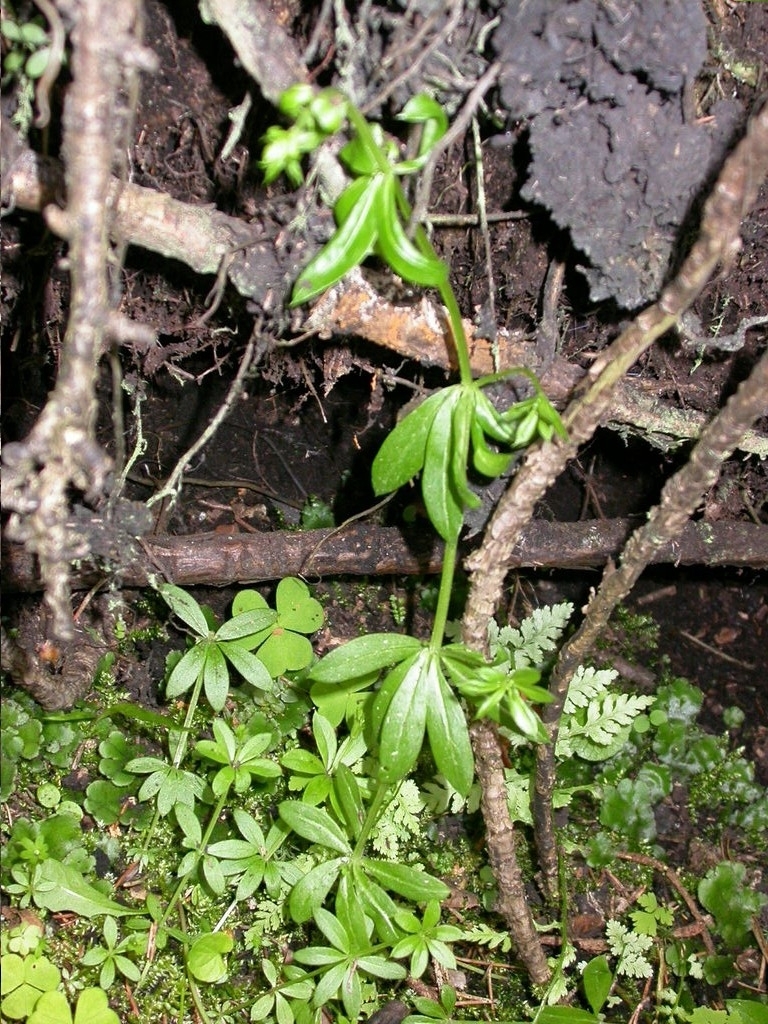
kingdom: Plantae
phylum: Tracheophyta
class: Magnoliopsida
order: Gentianales
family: Rubiaceae
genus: Galium
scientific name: Galium triflorum
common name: Fragrant bedstraw
